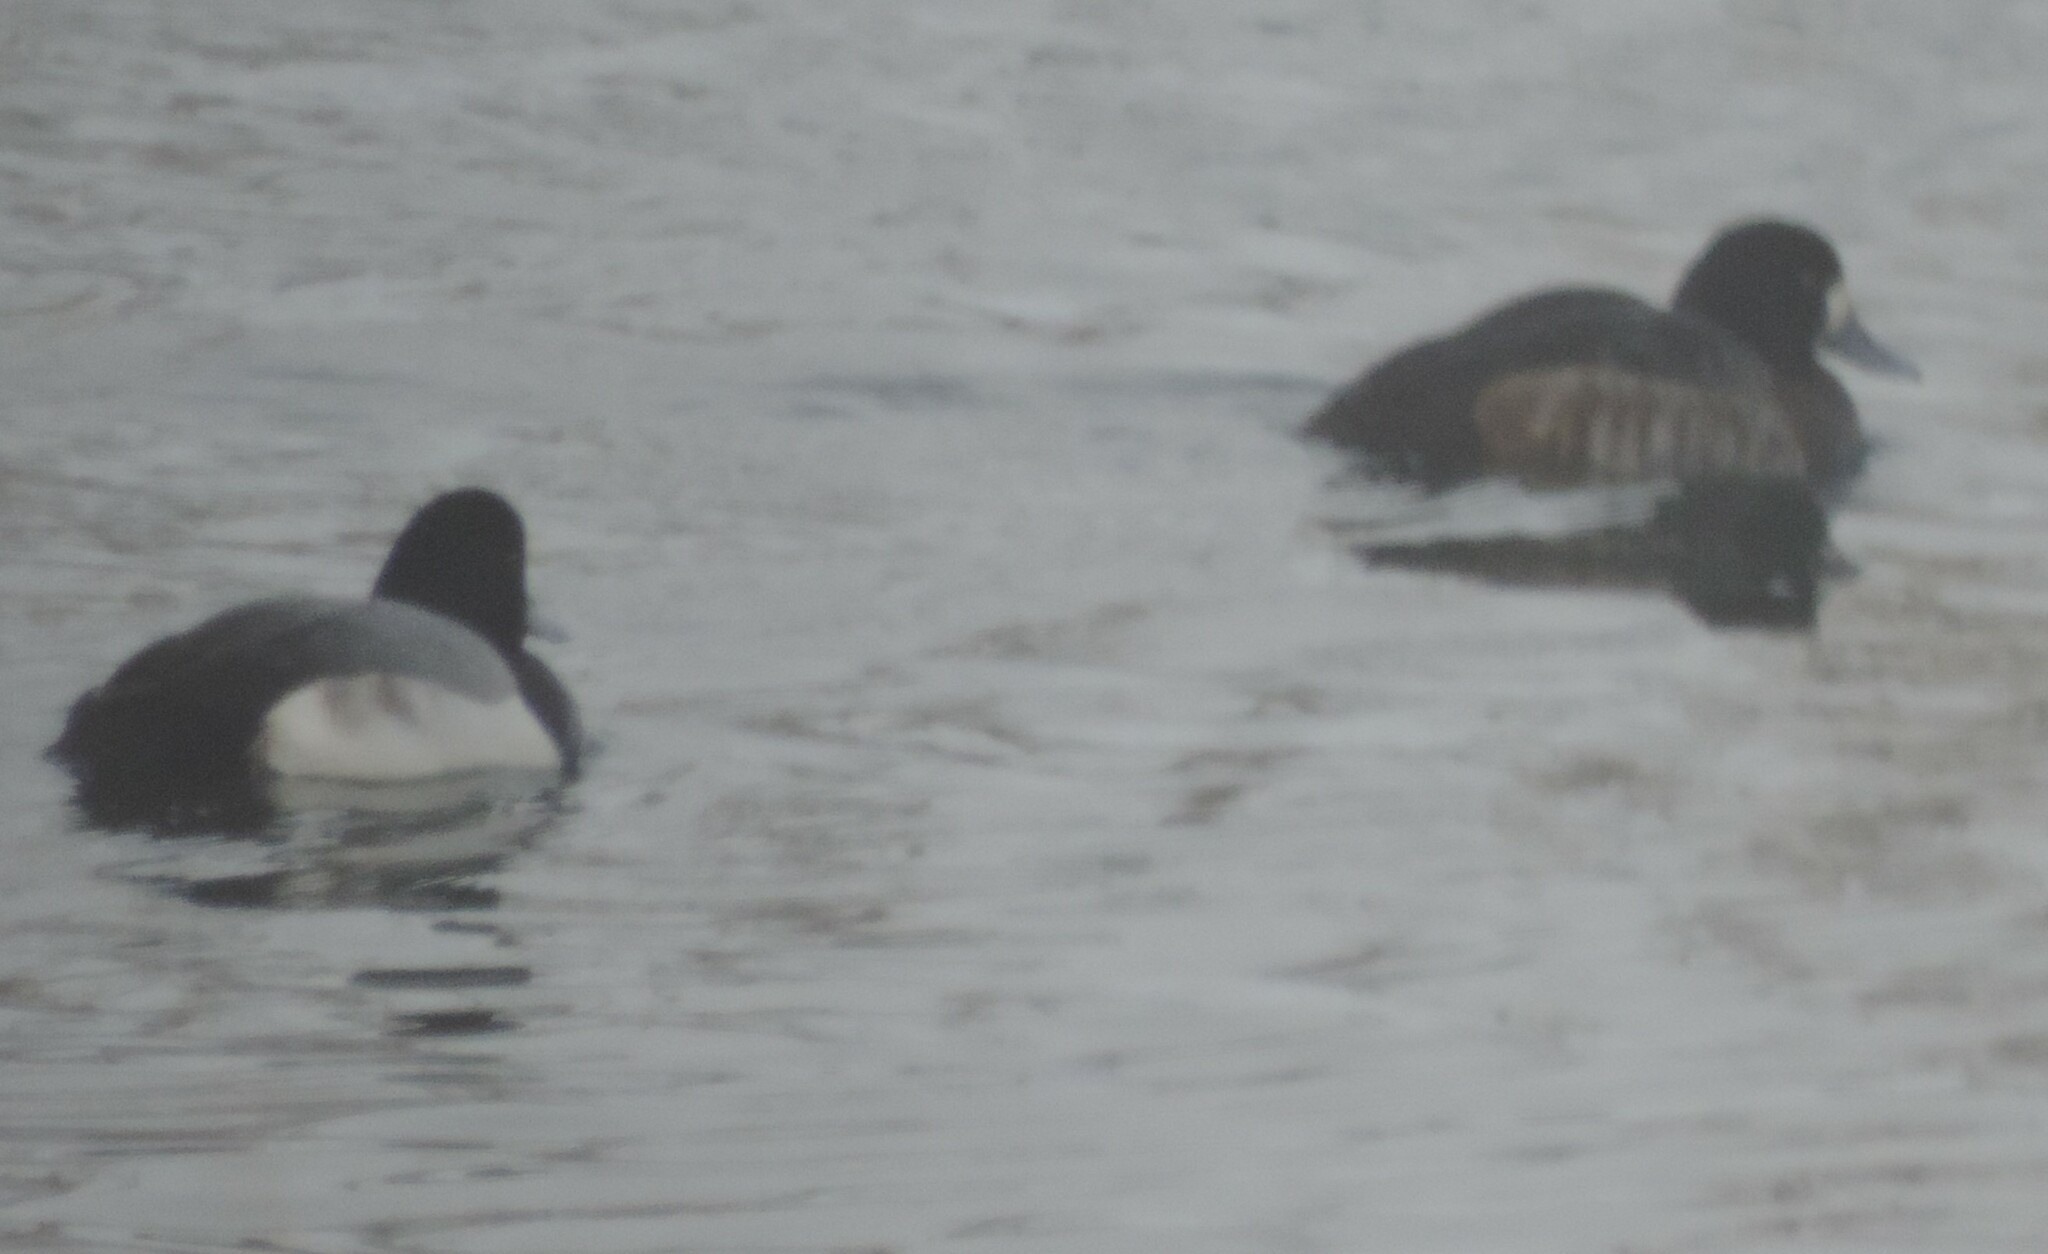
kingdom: Animalia
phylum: Chordata
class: Aves
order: Anseriformes
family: Anatidae
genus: Aythya
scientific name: Aythya marila
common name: Greater scaup
